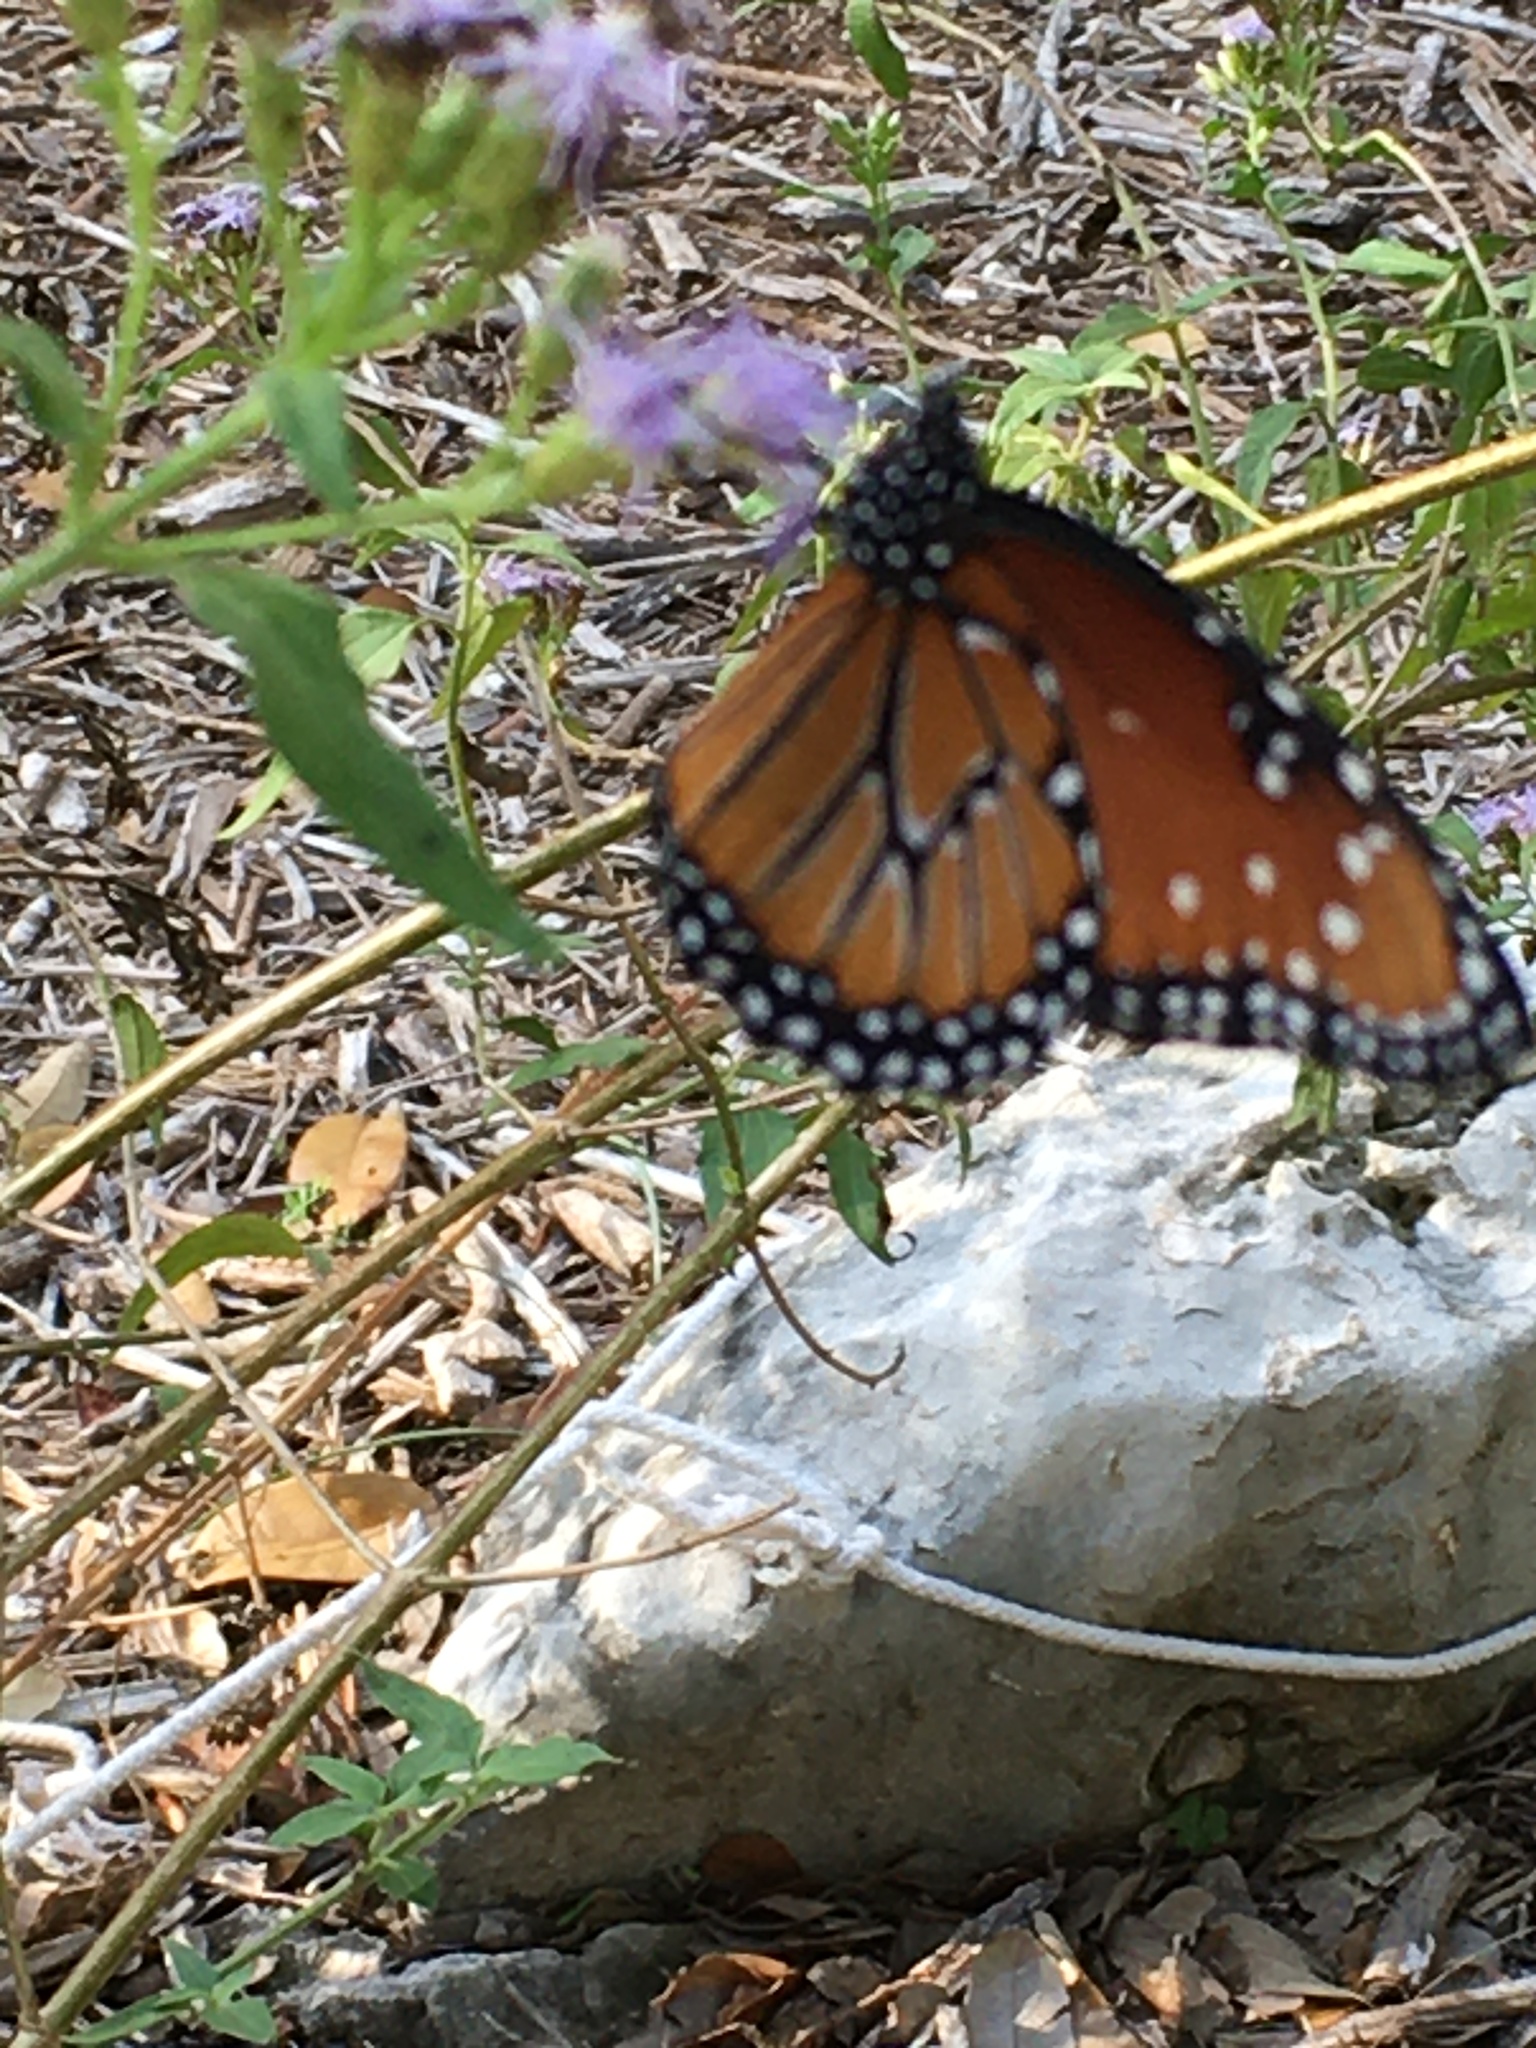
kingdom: Animalia
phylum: Arthropoda
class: Insecta
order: Lepidoptera
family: Nymphalidae
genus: Danaus
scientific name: Danaus gilippus
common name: Queen
